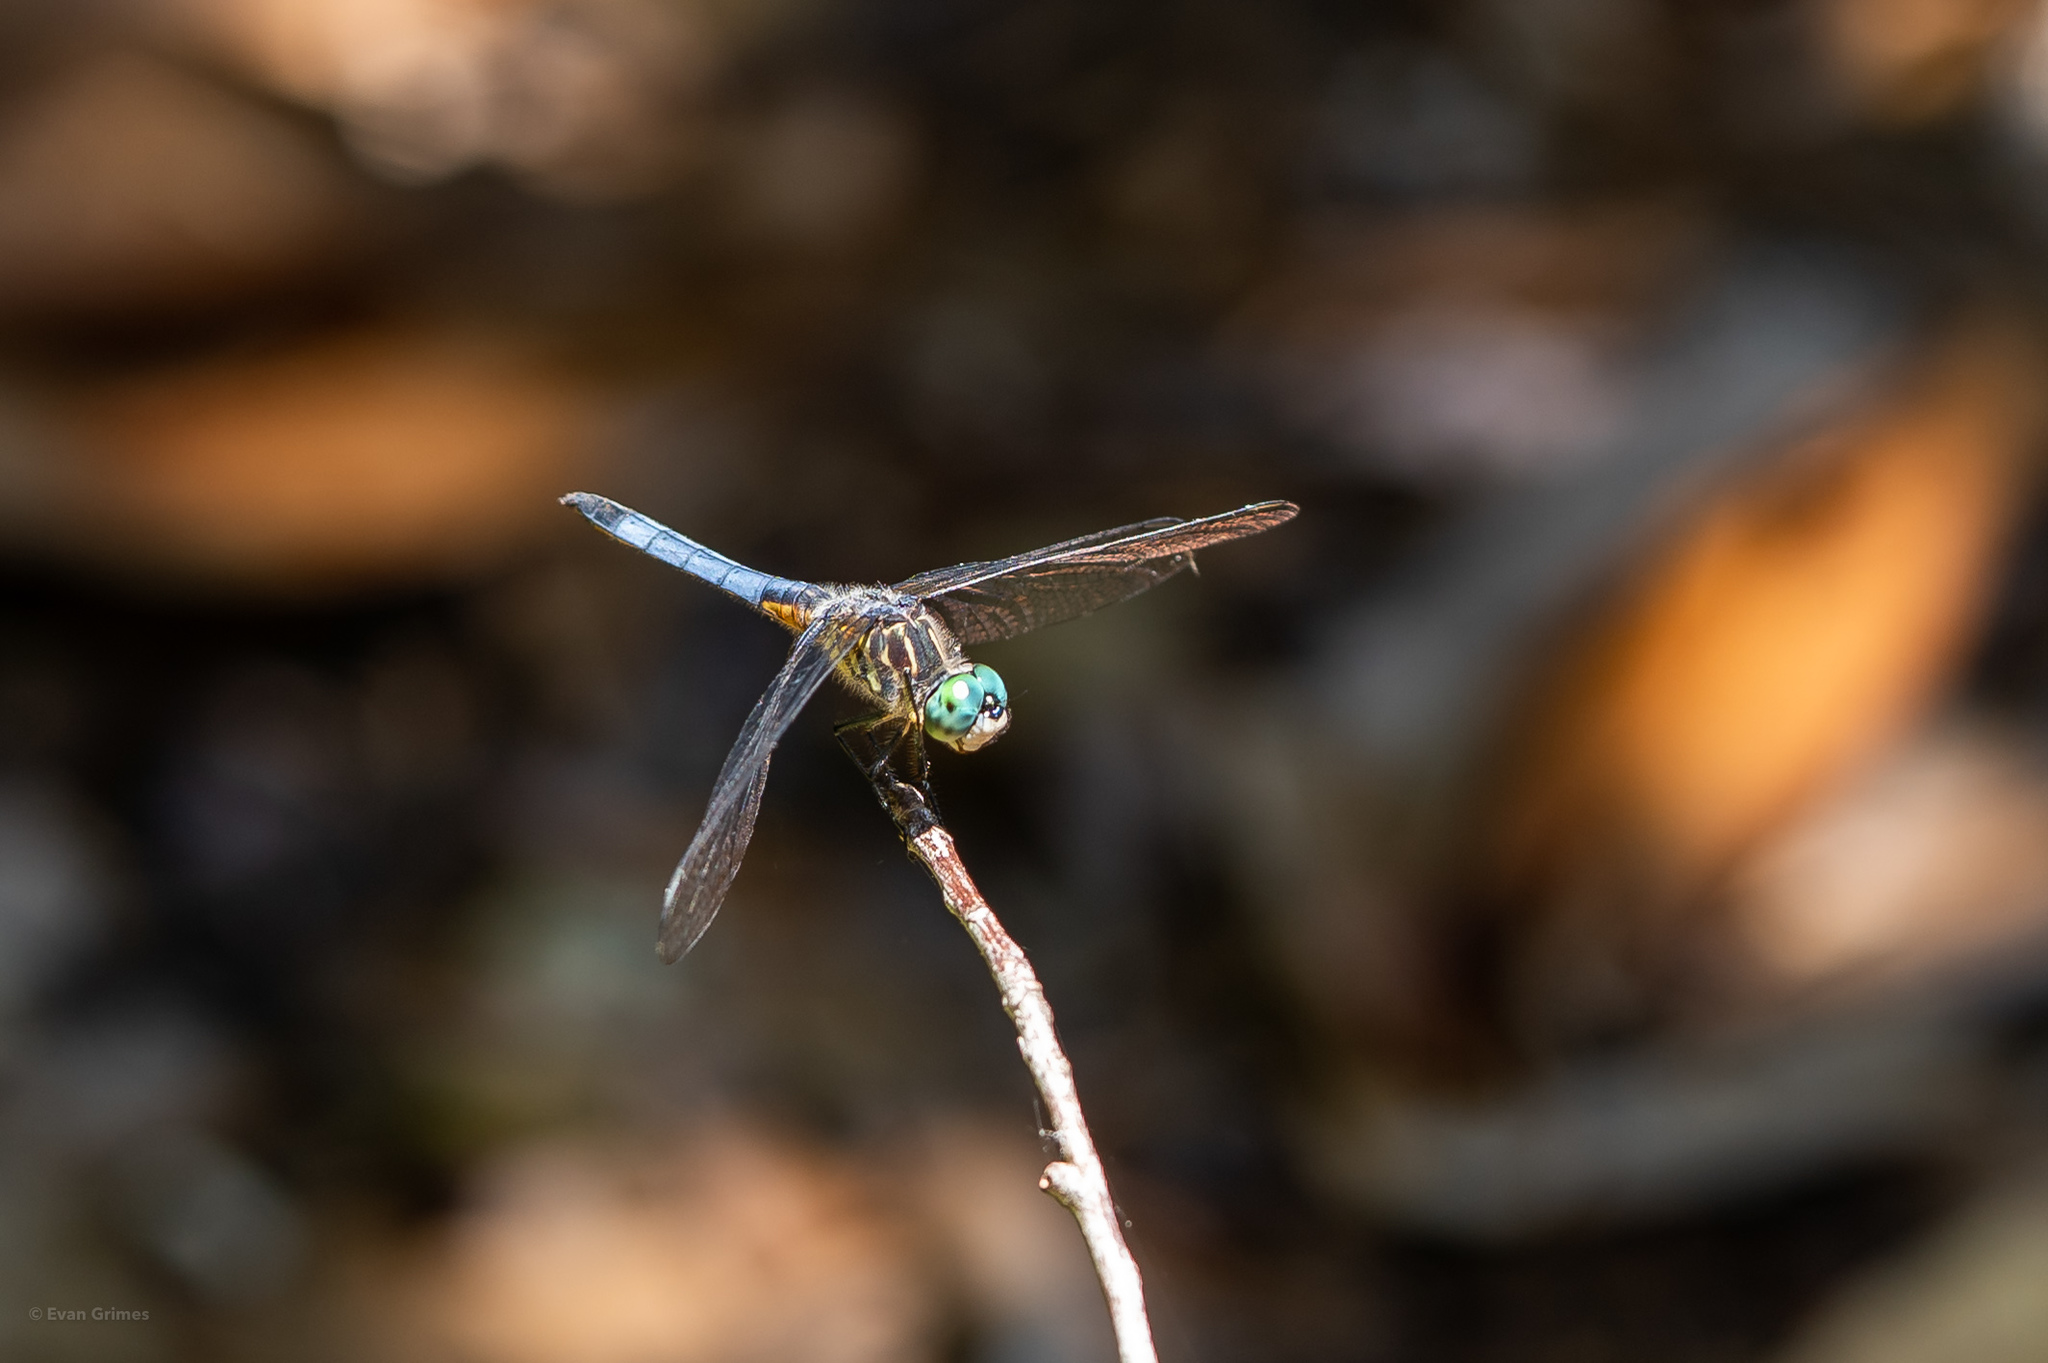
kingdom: Animalia
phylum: Arthropoda
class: Insecta
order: Odonata
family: Libellulidae
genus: Pachydiplax
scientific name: Pachydiplax longipennis
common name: Blue dasher
